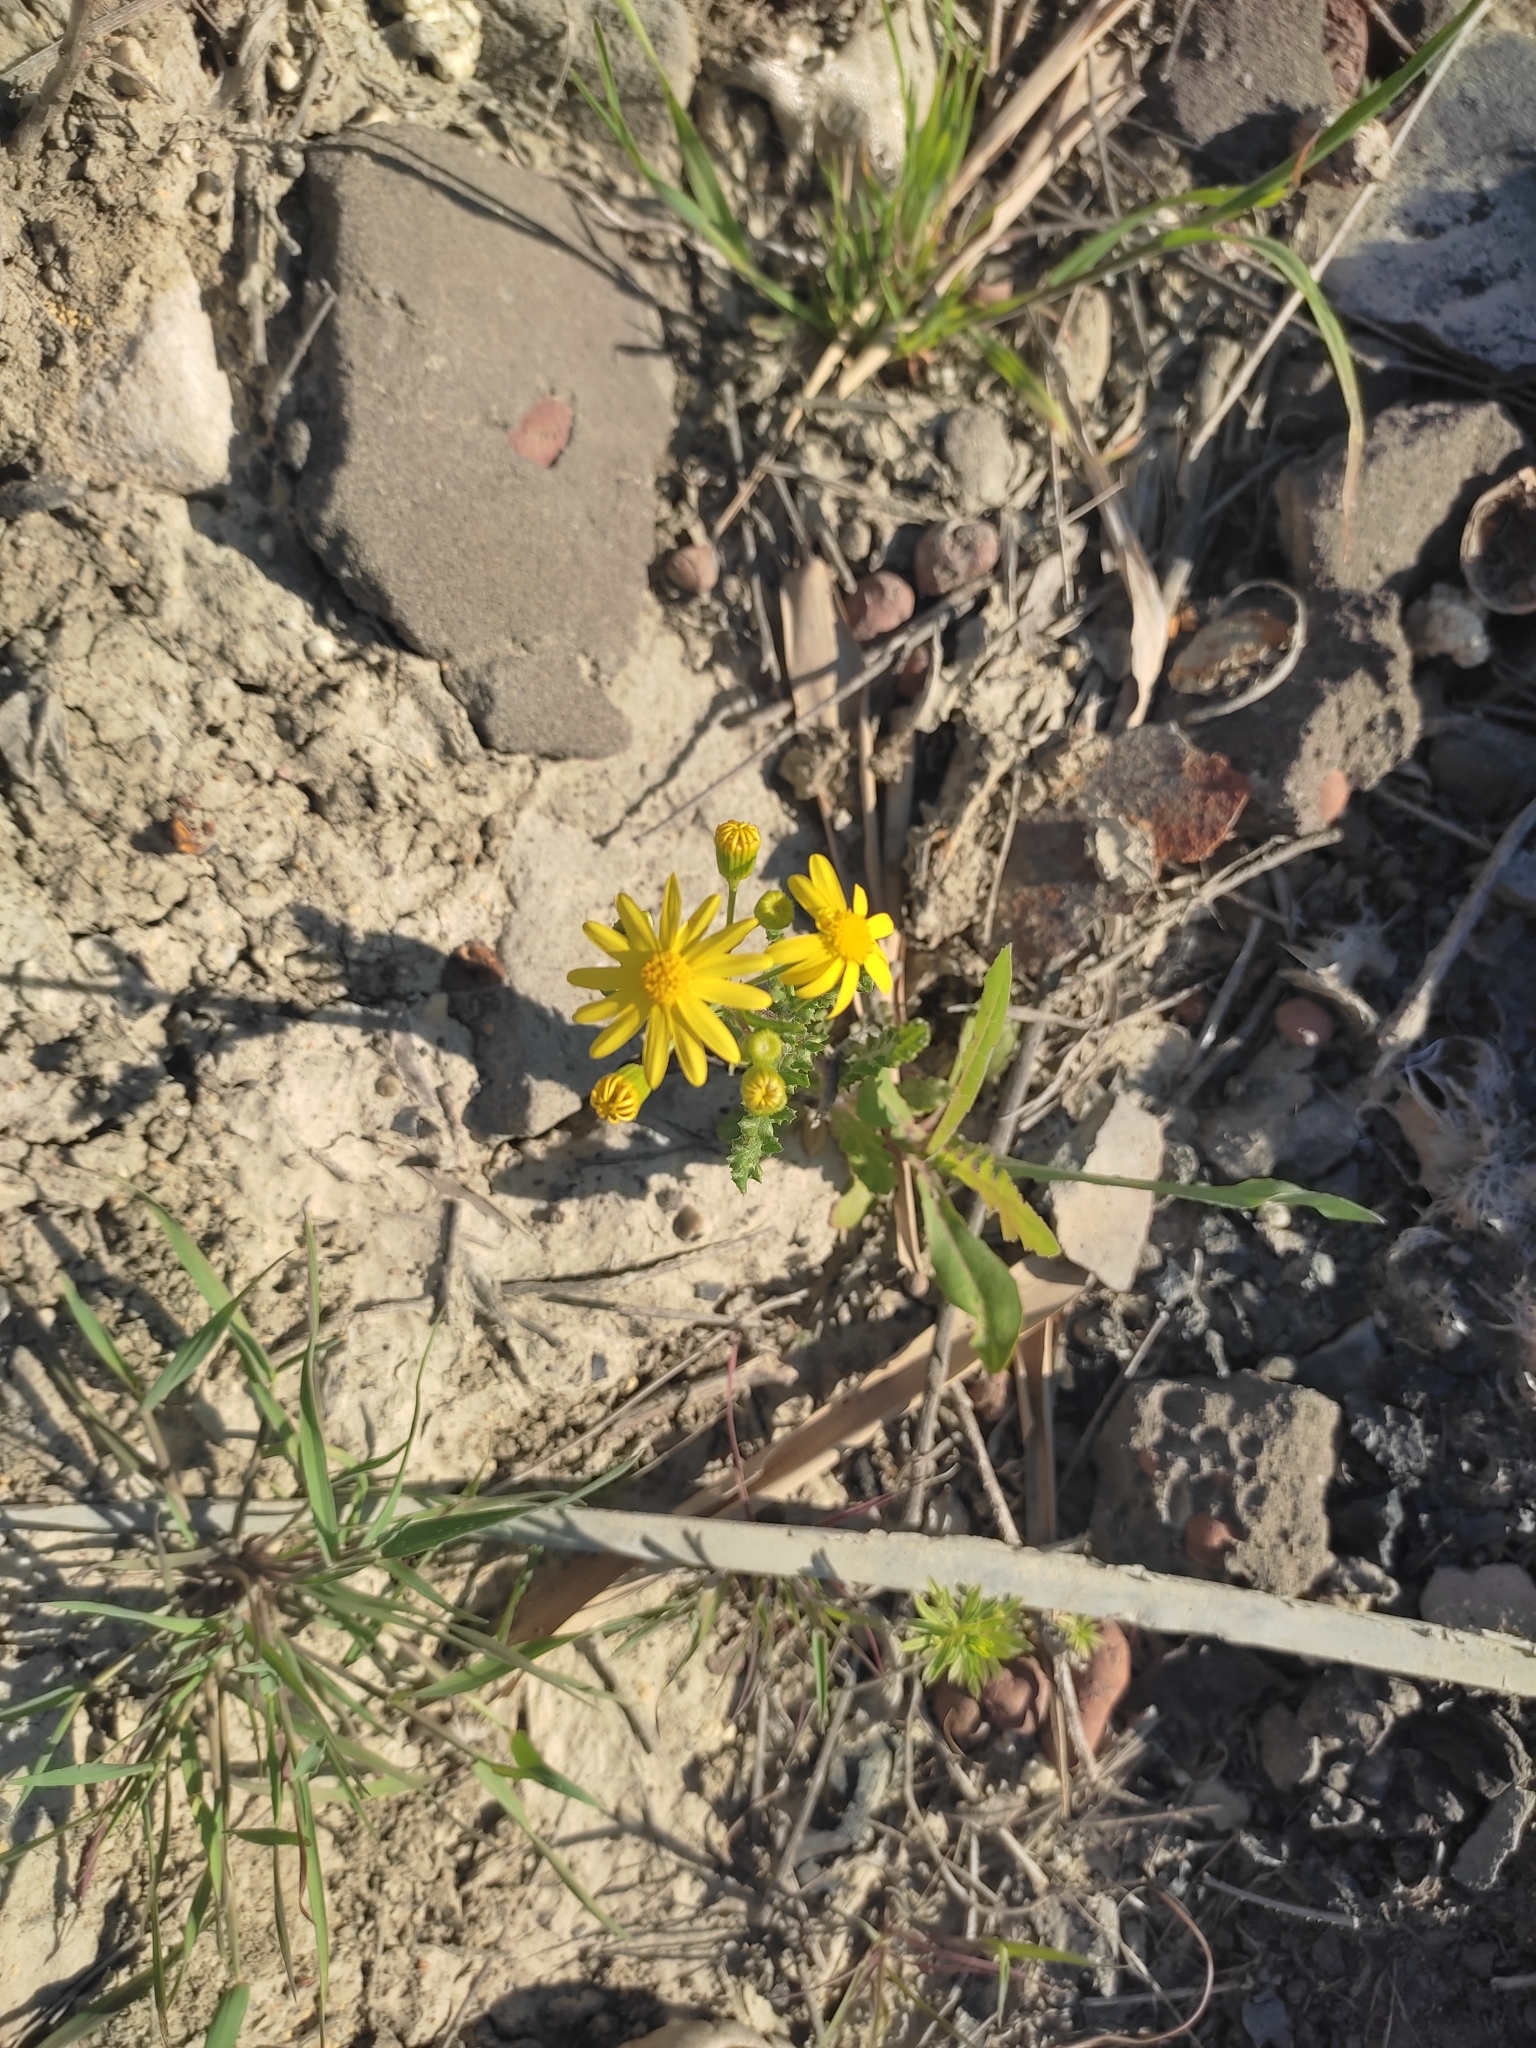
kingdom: Plantae
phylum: Tracheophyta
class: Magnoliopsida
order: Asterales
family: Asteraceae
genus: Senecio
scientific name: Senecio vernalis
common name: Eastern groundsel
